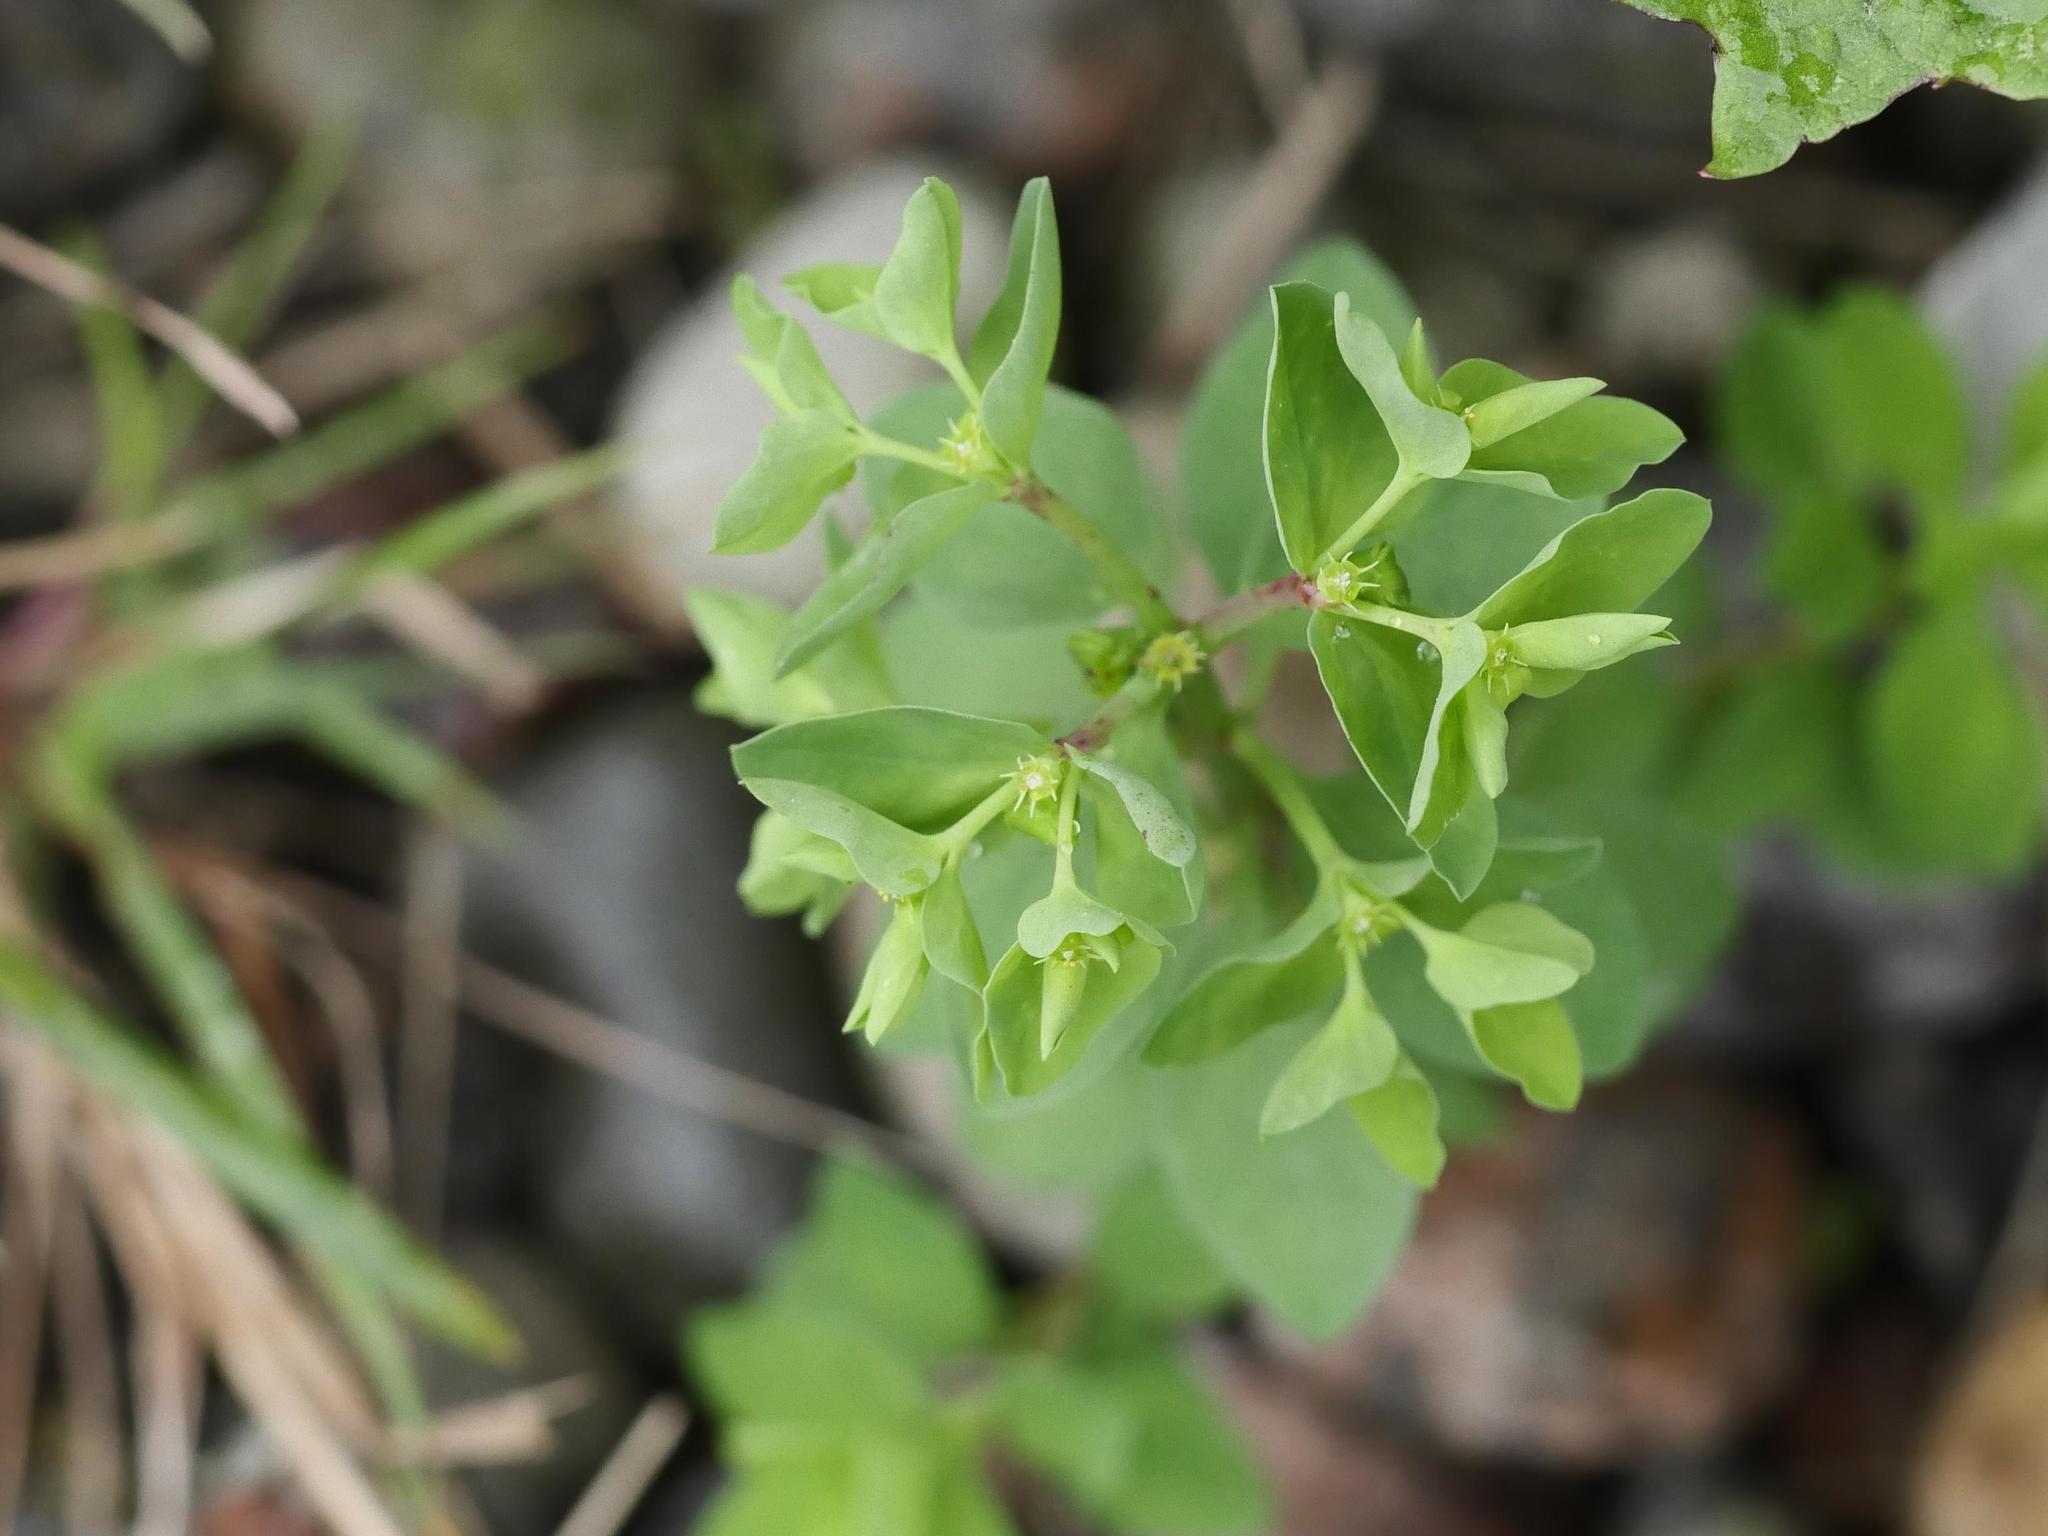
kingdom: Plantae
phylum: Tracheophyta
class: Magnoliopsida
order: Malpighiales
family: Euphorbiaceae
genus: Euphorbia
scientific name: Euphorbia peplus
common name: Petty spurge
